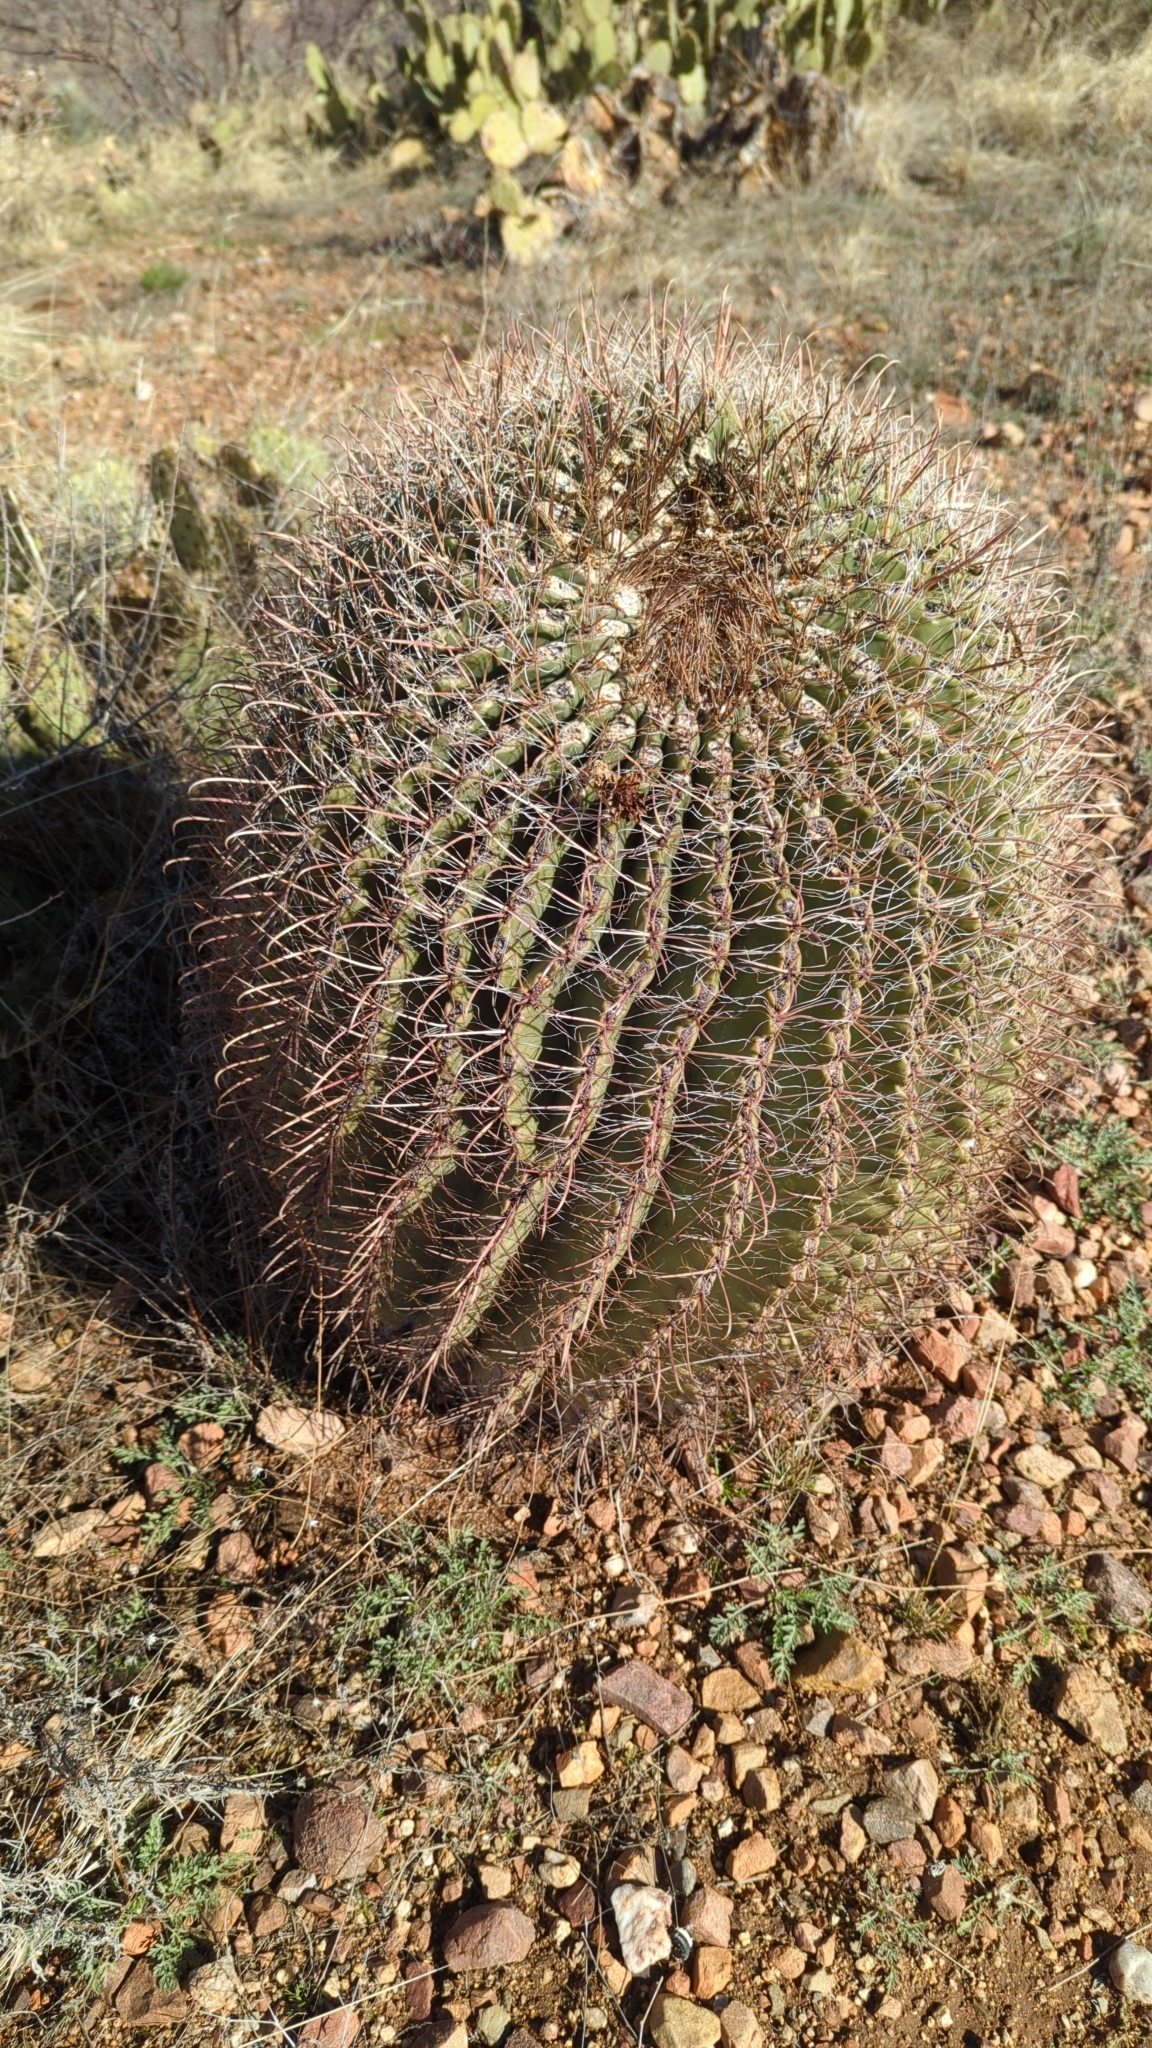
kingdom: Plantae
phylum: Tracheophyta
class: Magnoliopsida
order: Caryophyllales
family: Cactaceae
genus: Ferocactus
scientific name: Ferocactus wislizeni
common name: Candy barrel cactus
